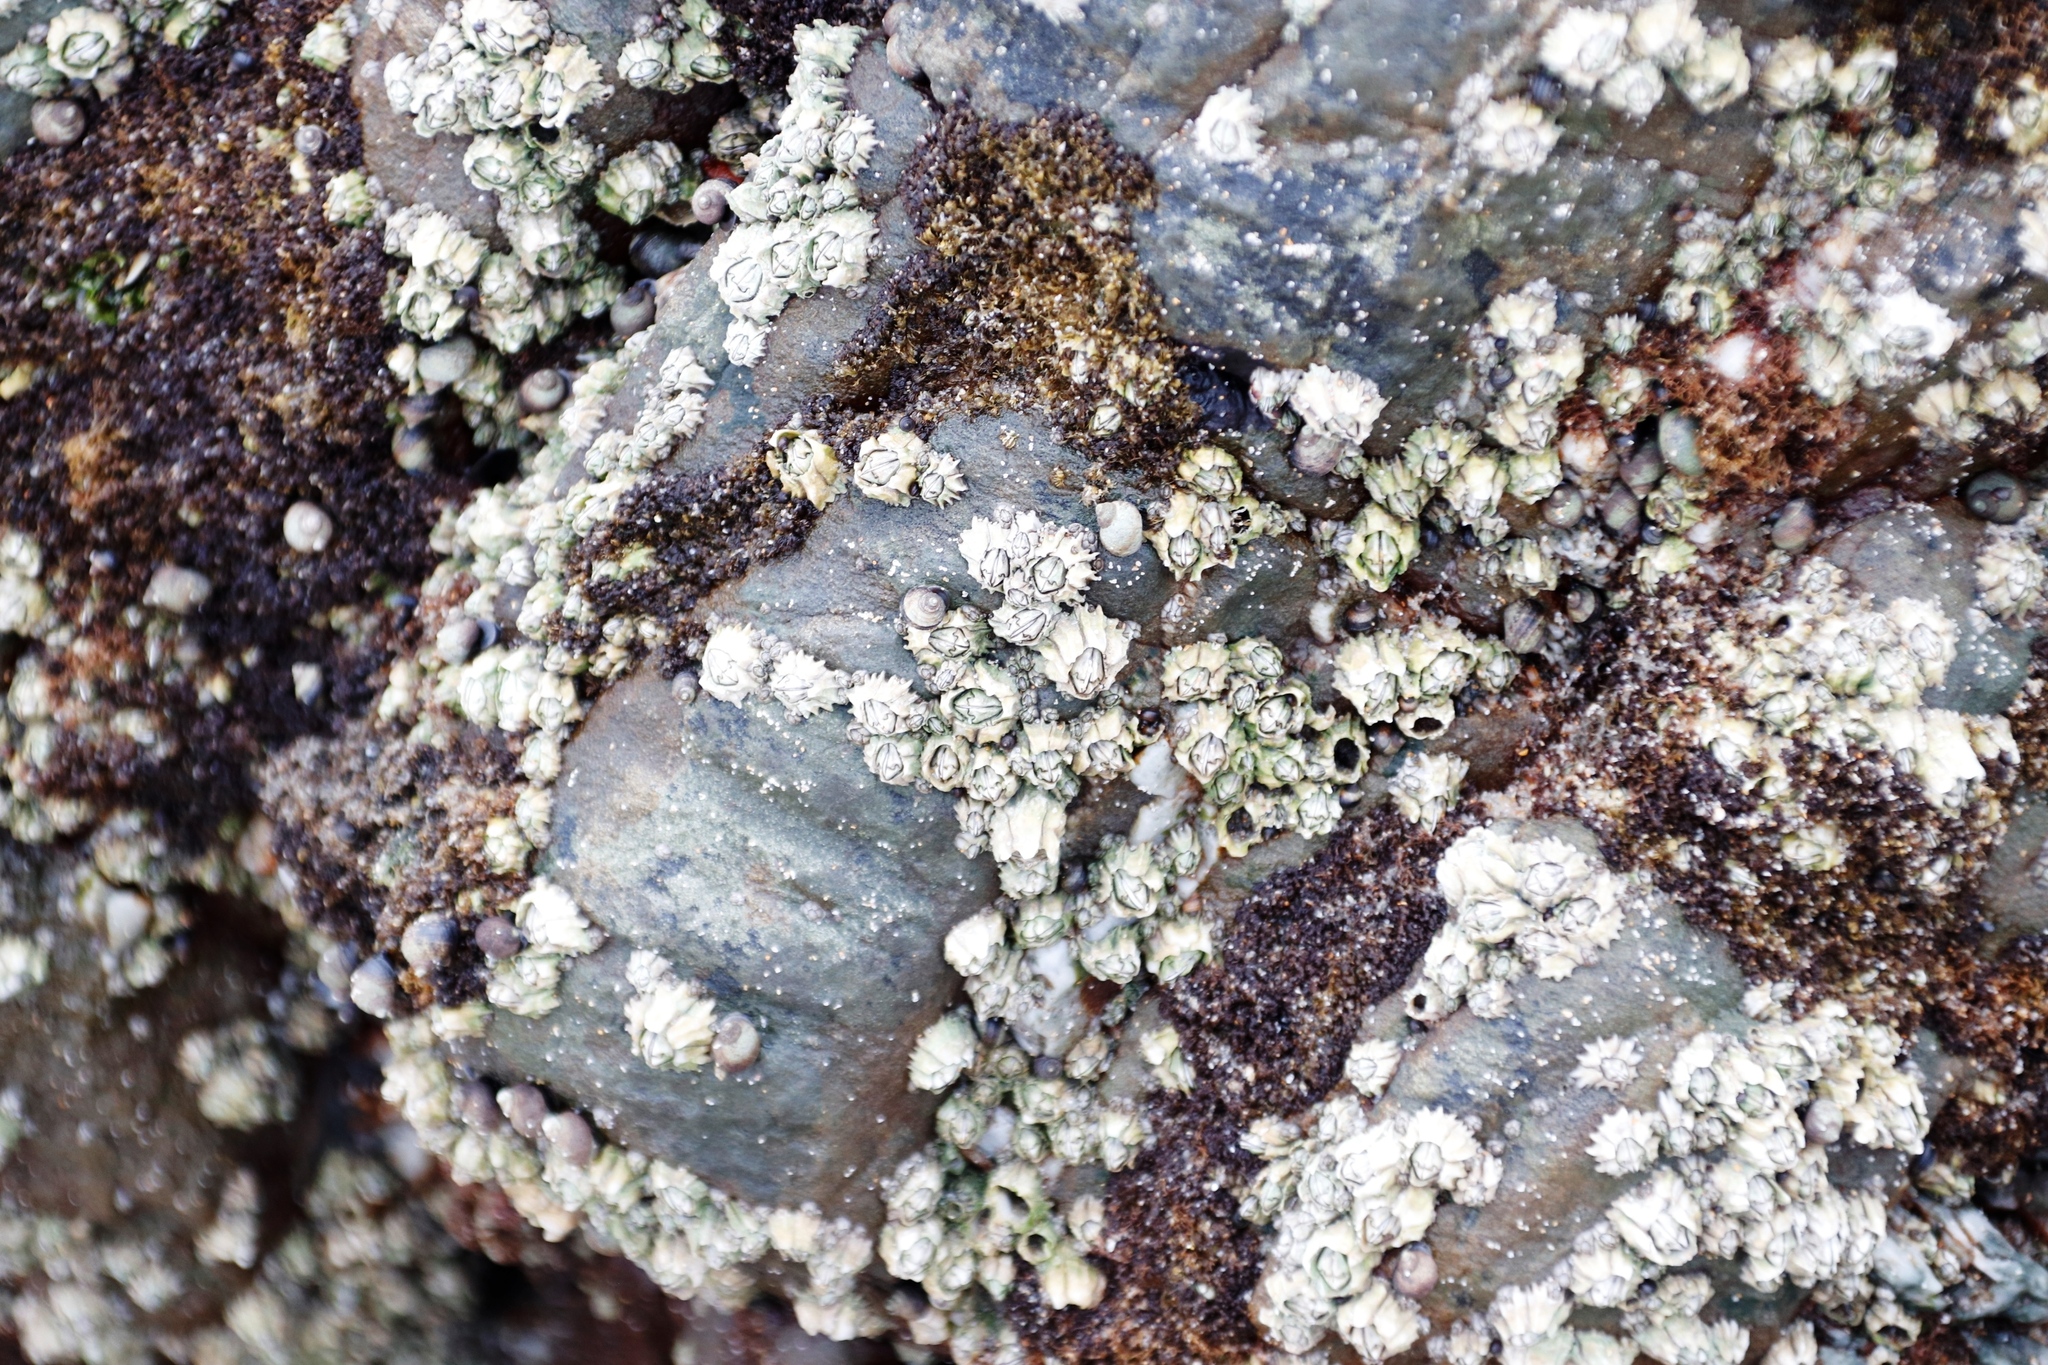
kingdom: Animalia
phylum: Arthropoda
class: Maxillopoda
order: Sessilia
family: Chthamalidae
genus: Chthamalus
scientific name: Chthamalus dentatus
